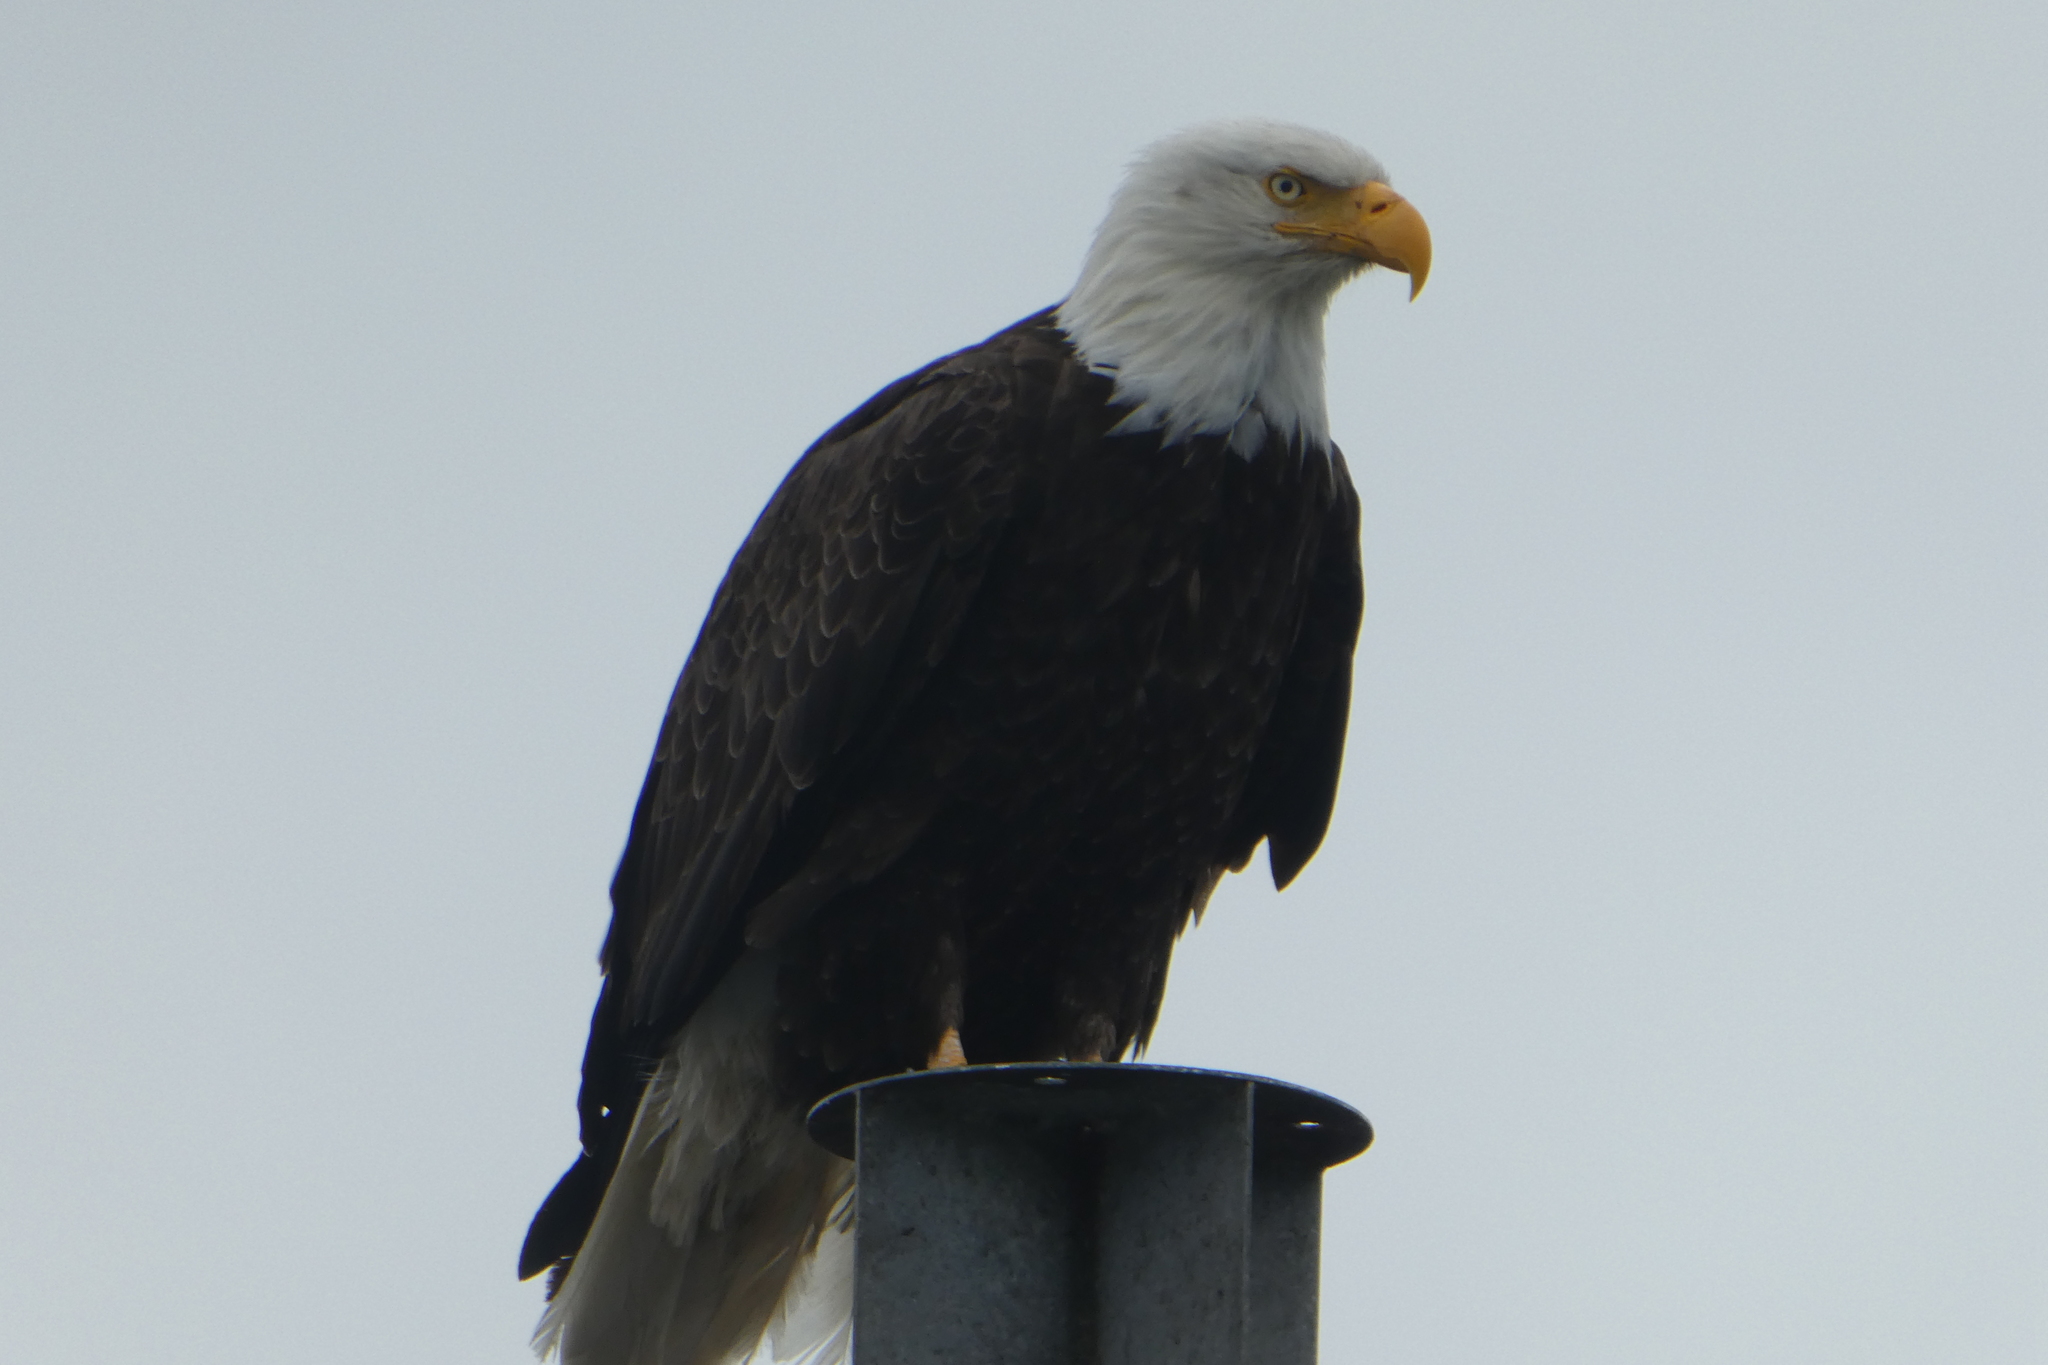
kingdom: Animalia
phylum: Chordata
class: Aves
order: Accipitriformes
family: Accipitridae
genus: Haliaeetus
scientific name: Haliaeetus leucocephalus
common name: Bald eagle
